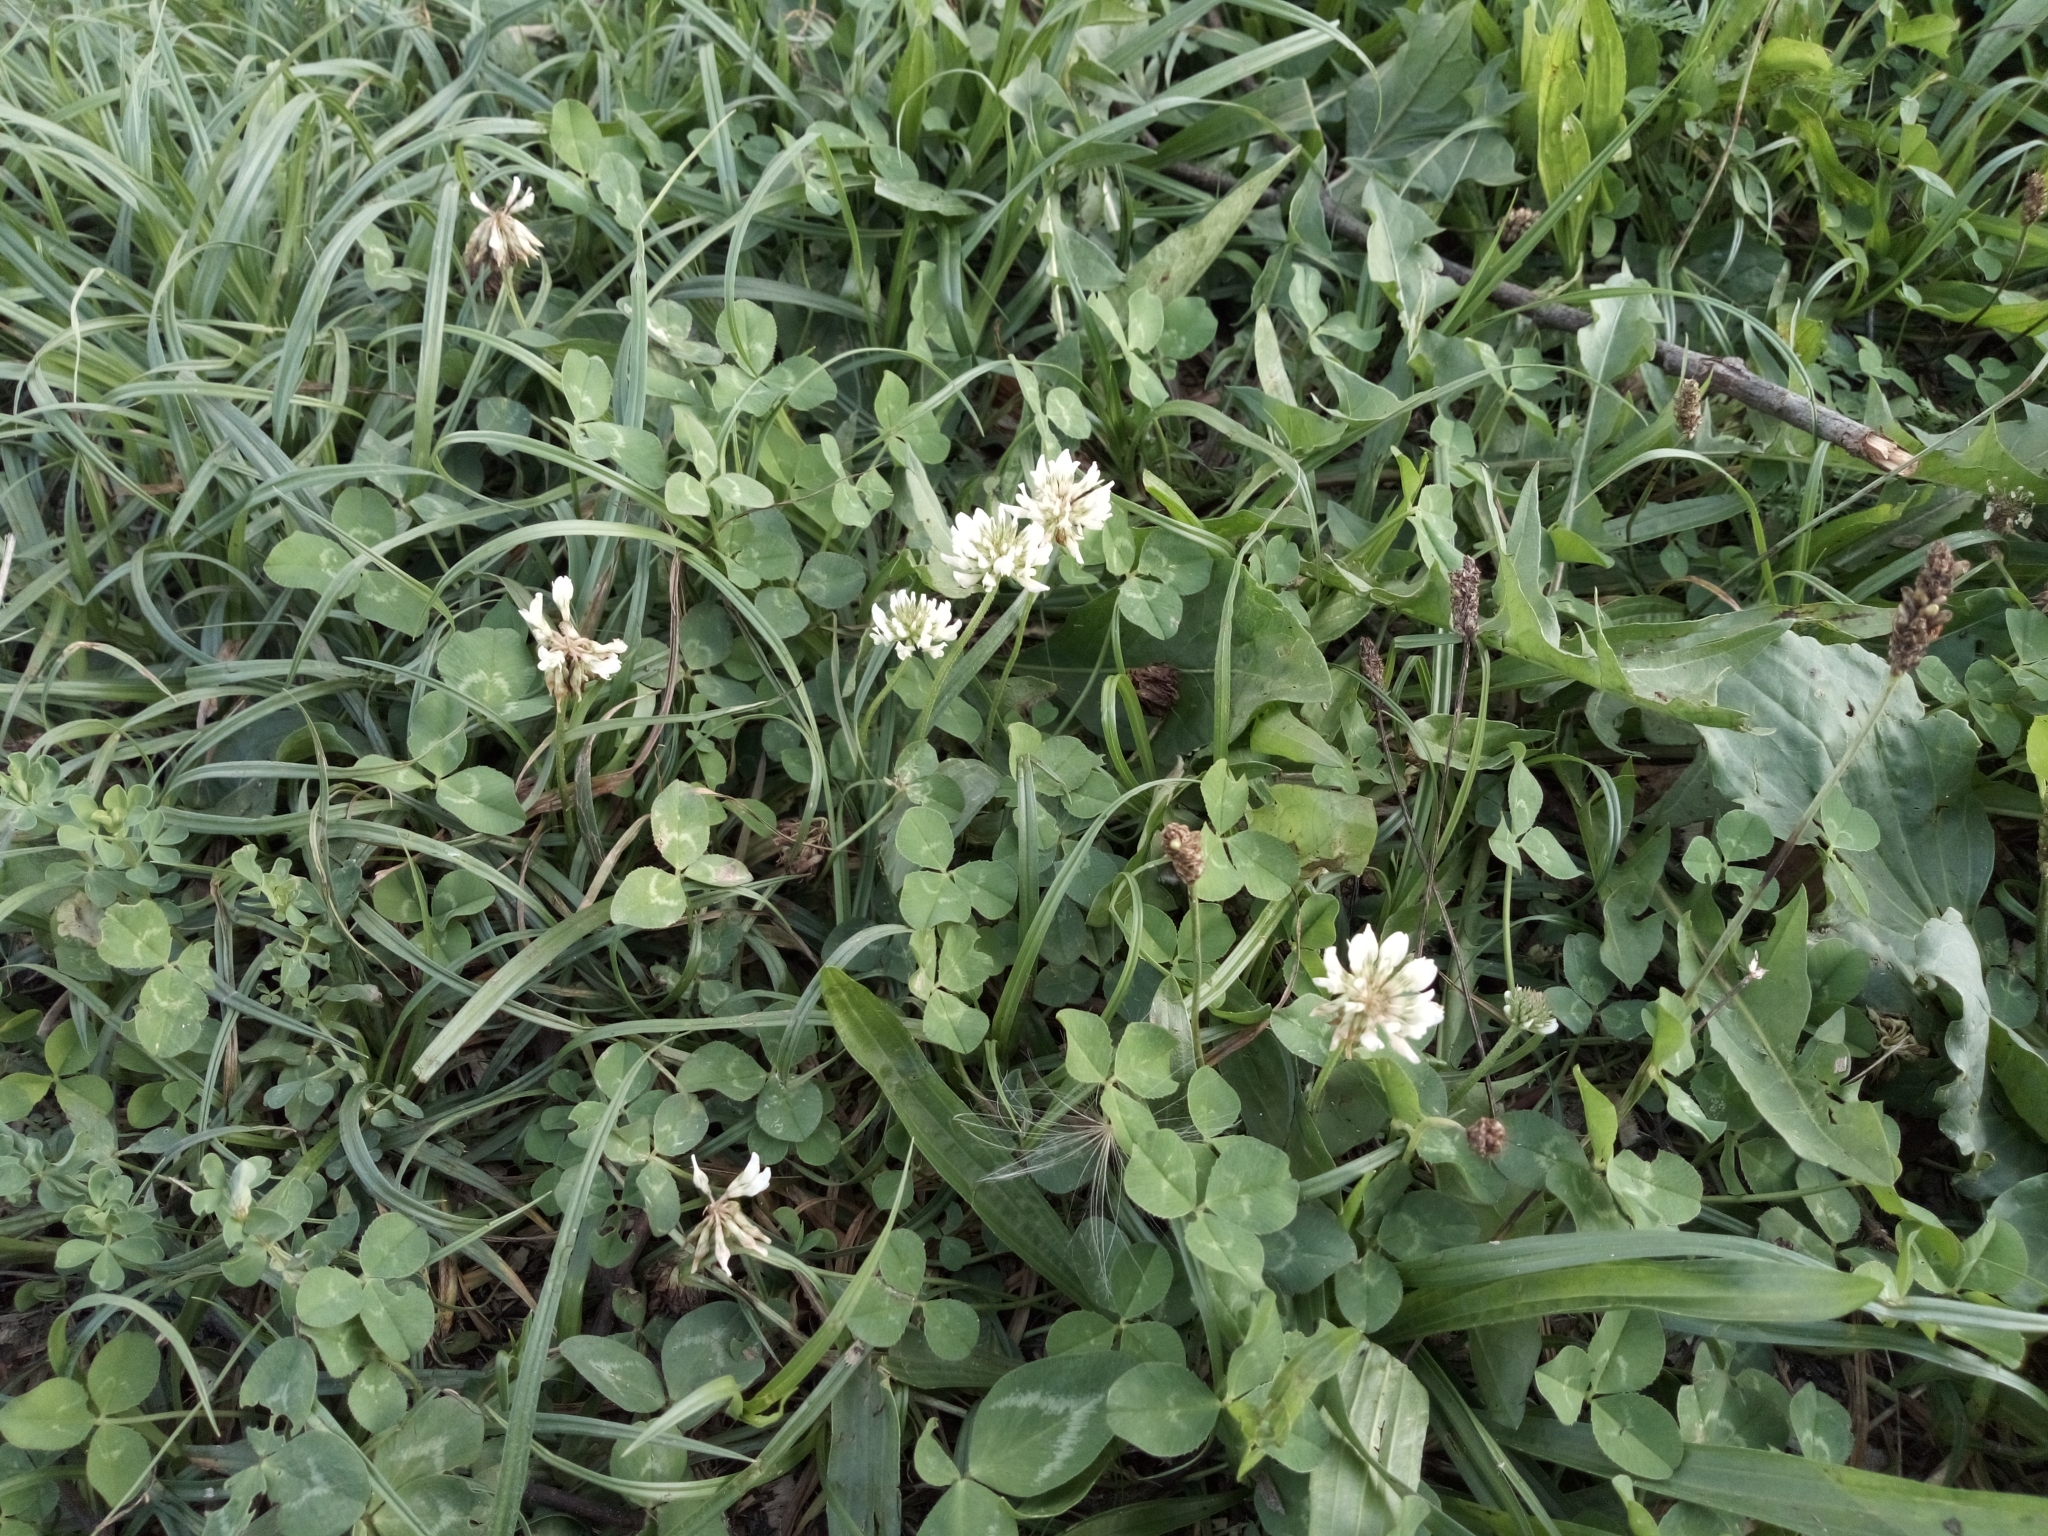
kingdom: Plantae
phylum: Tracheophyta
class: Magnoliopsida
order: Fabales
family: Fabaceae
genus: Trifolium
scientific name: Trifolium repens
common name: White clover
